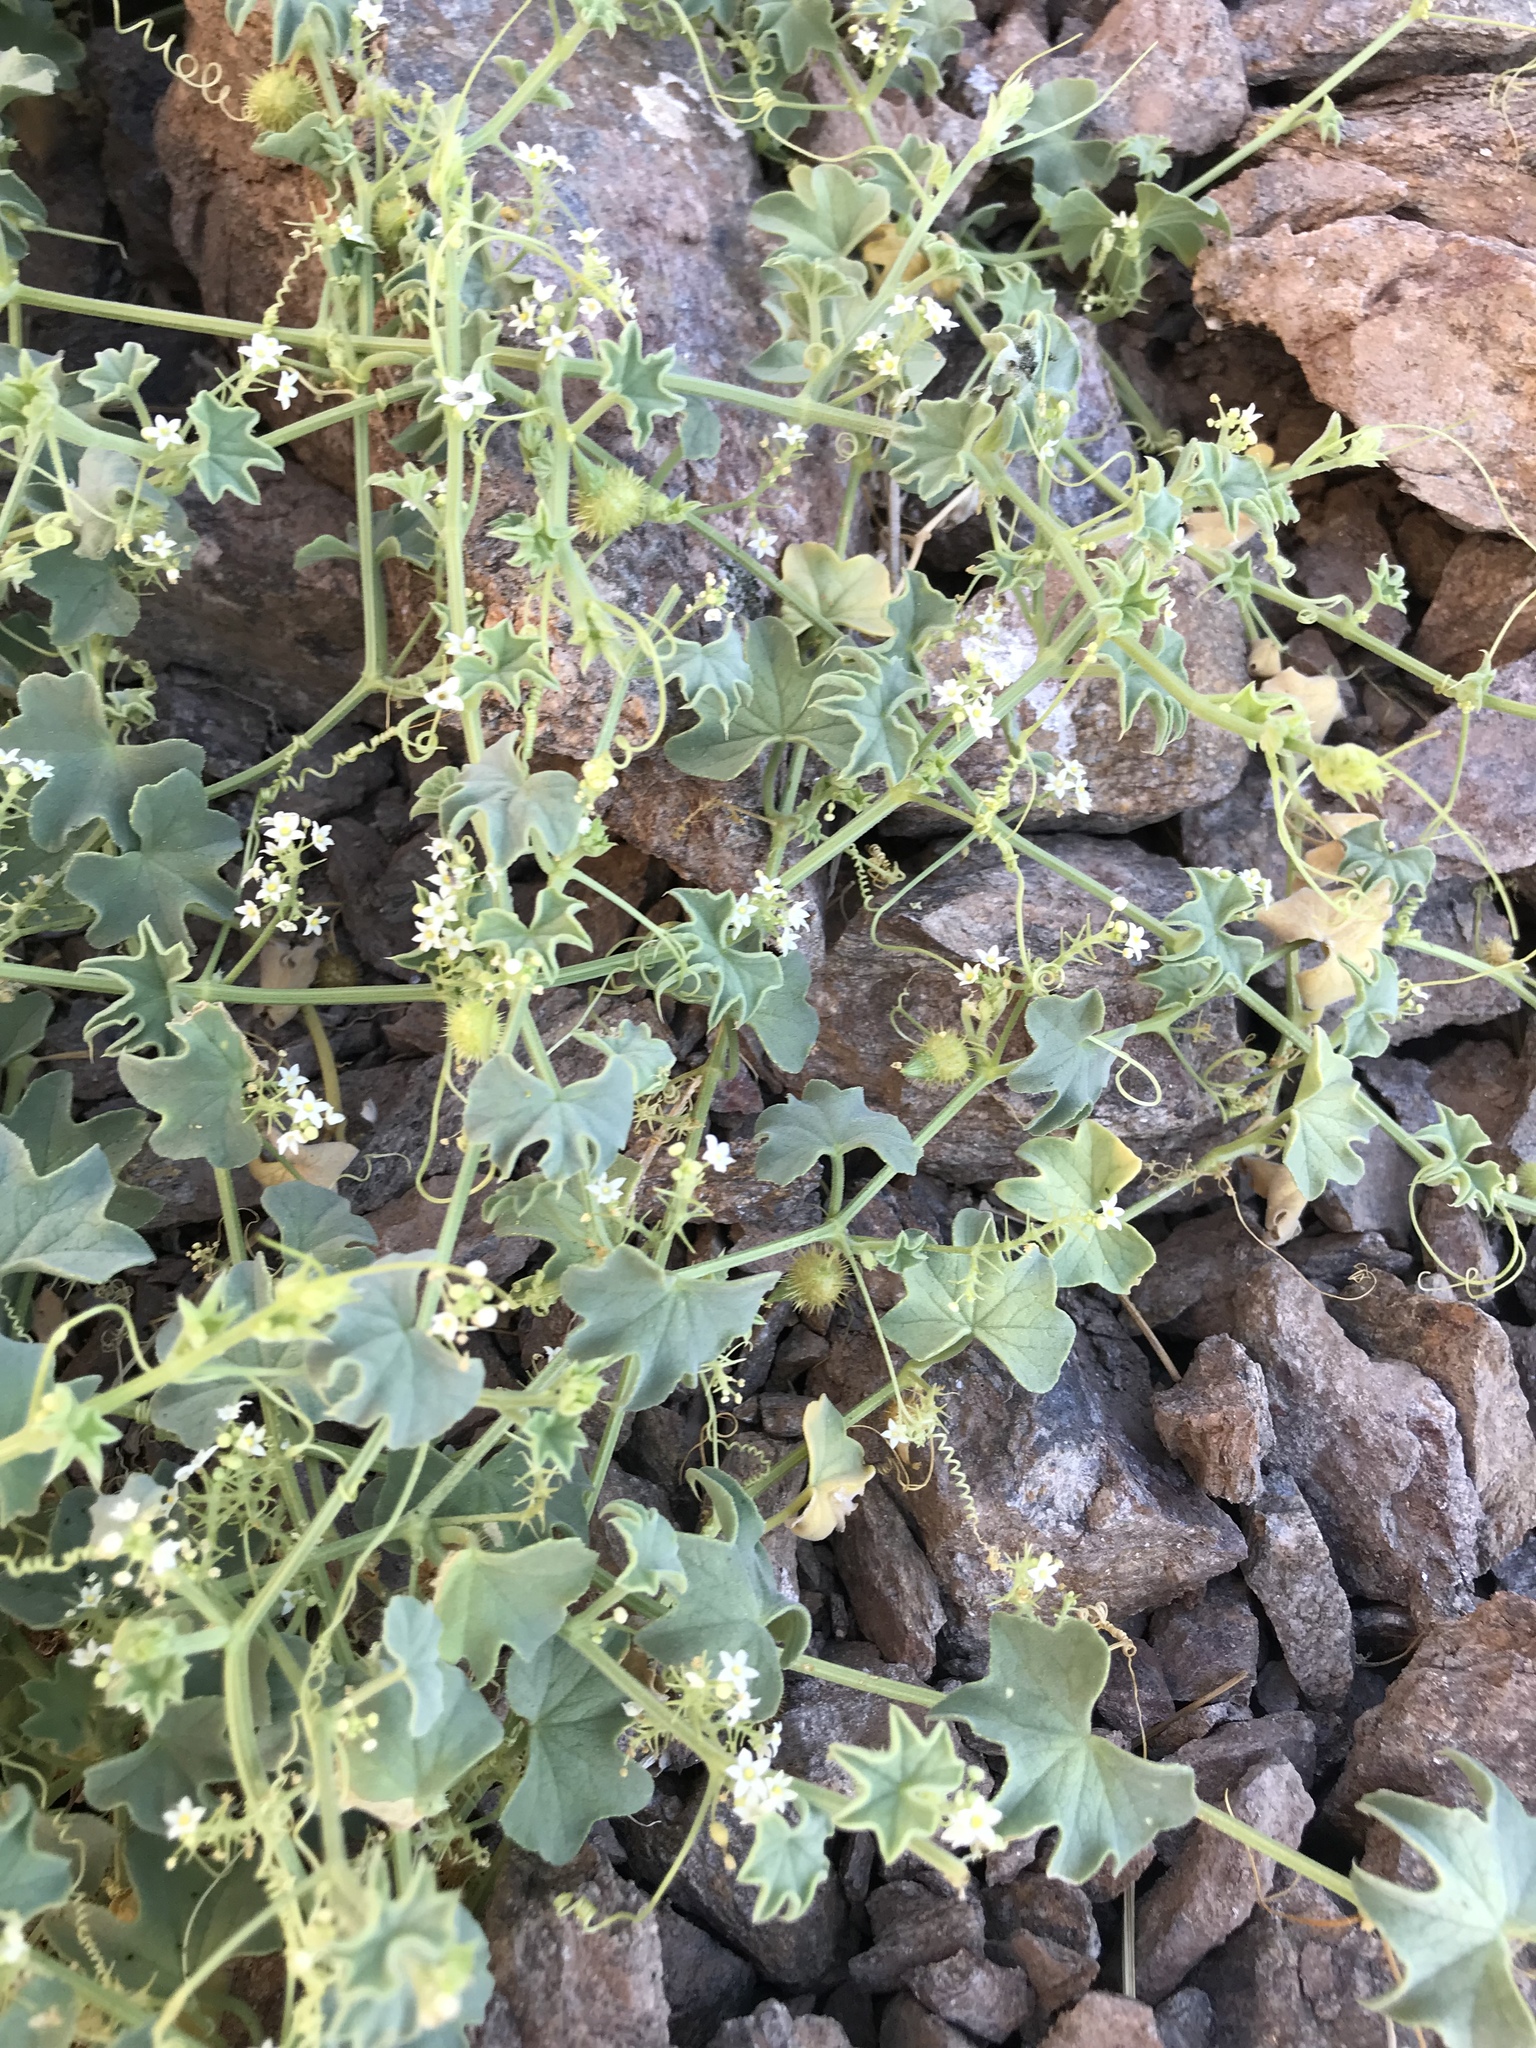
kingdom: Plantae
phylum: Tracheophyta
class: Magnoliopsida
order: Cucurbitales
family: Cucurbitaceae
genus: Echinopepon
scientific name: Echinopepon insularis
